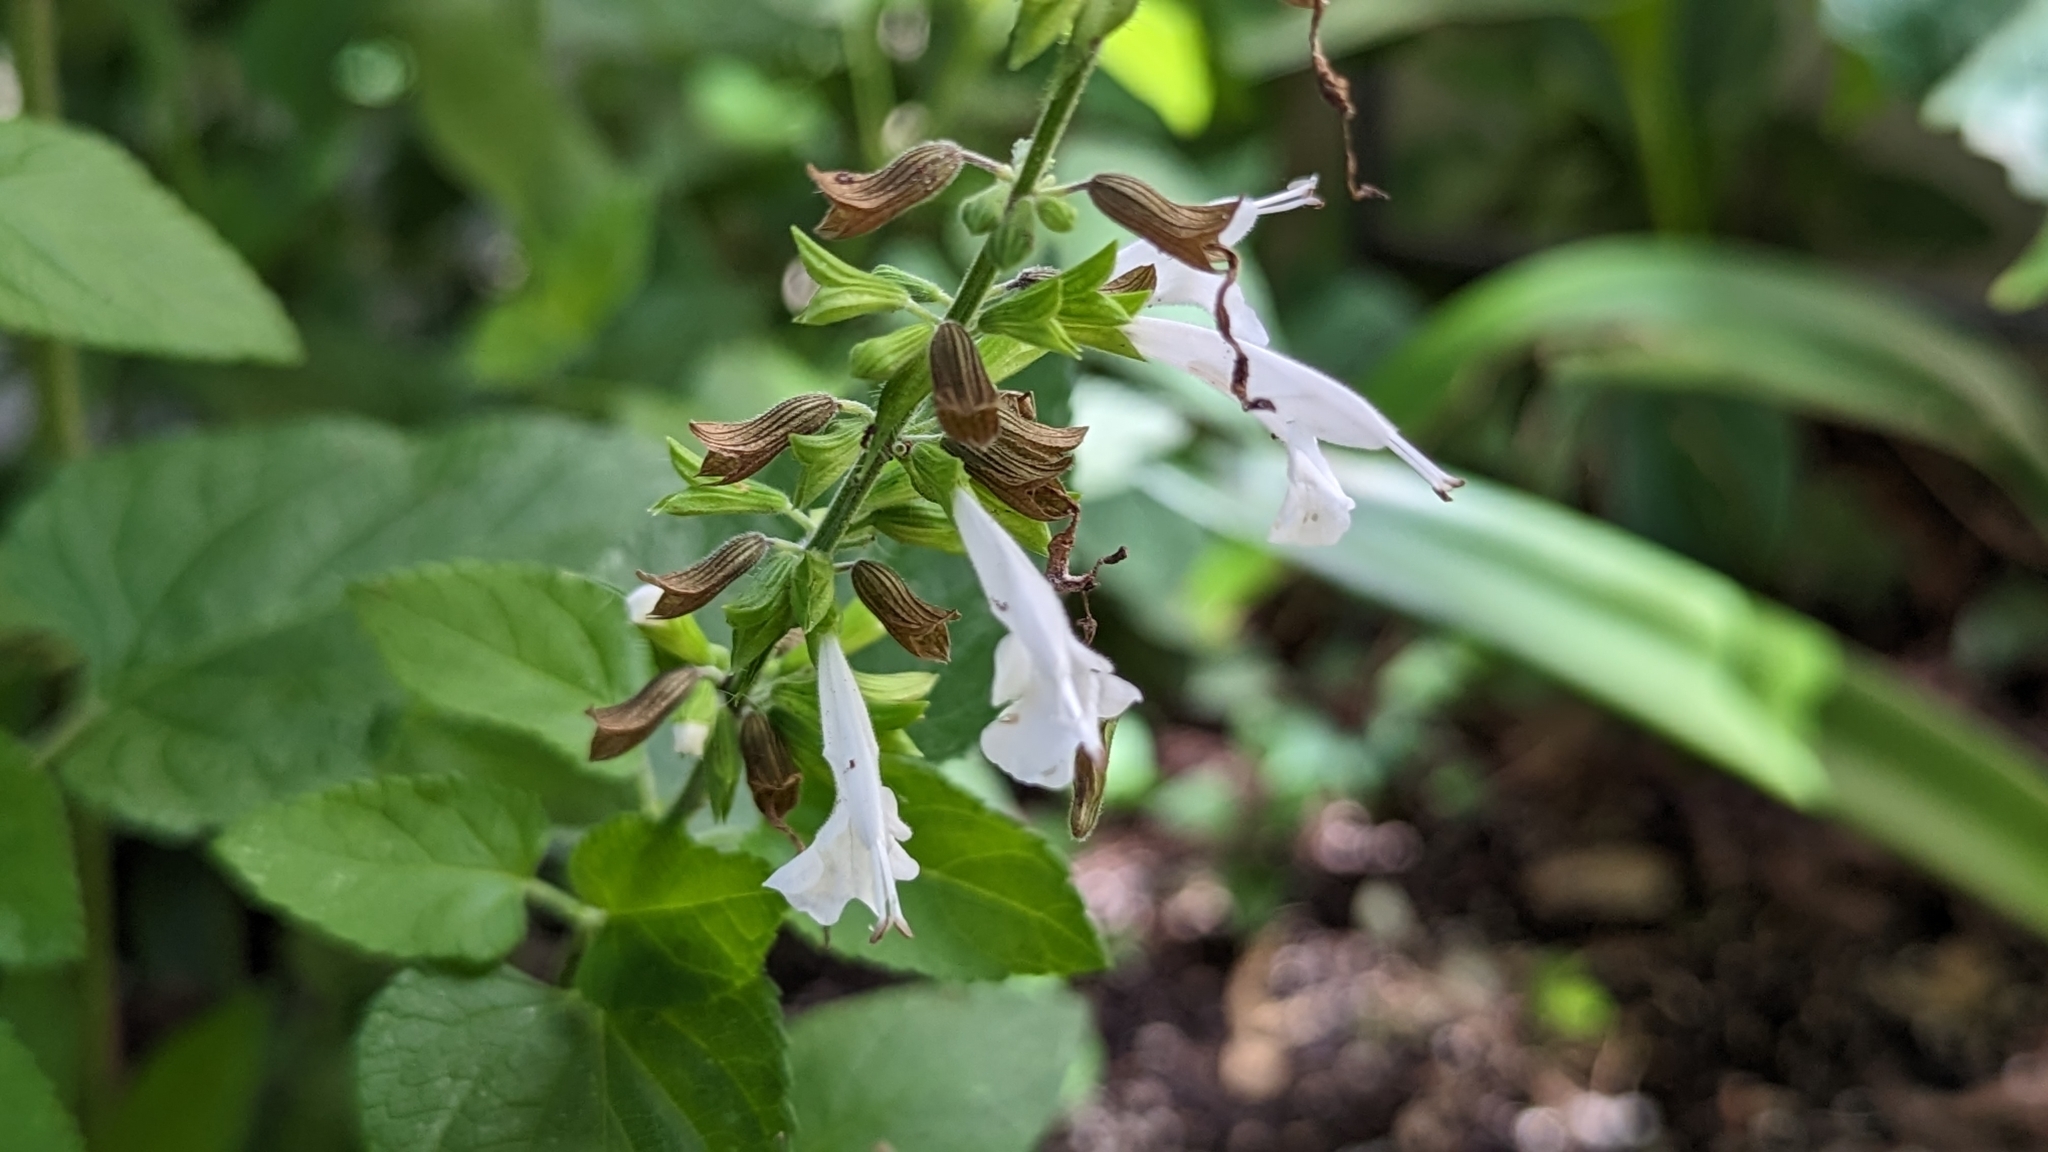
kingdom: Plantae
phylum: Tracheophyta
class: Magnoliopsida
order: Lamiales
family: Lamiaceae
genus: Salvia
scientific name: Salvia coccinea
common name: Blood sage
